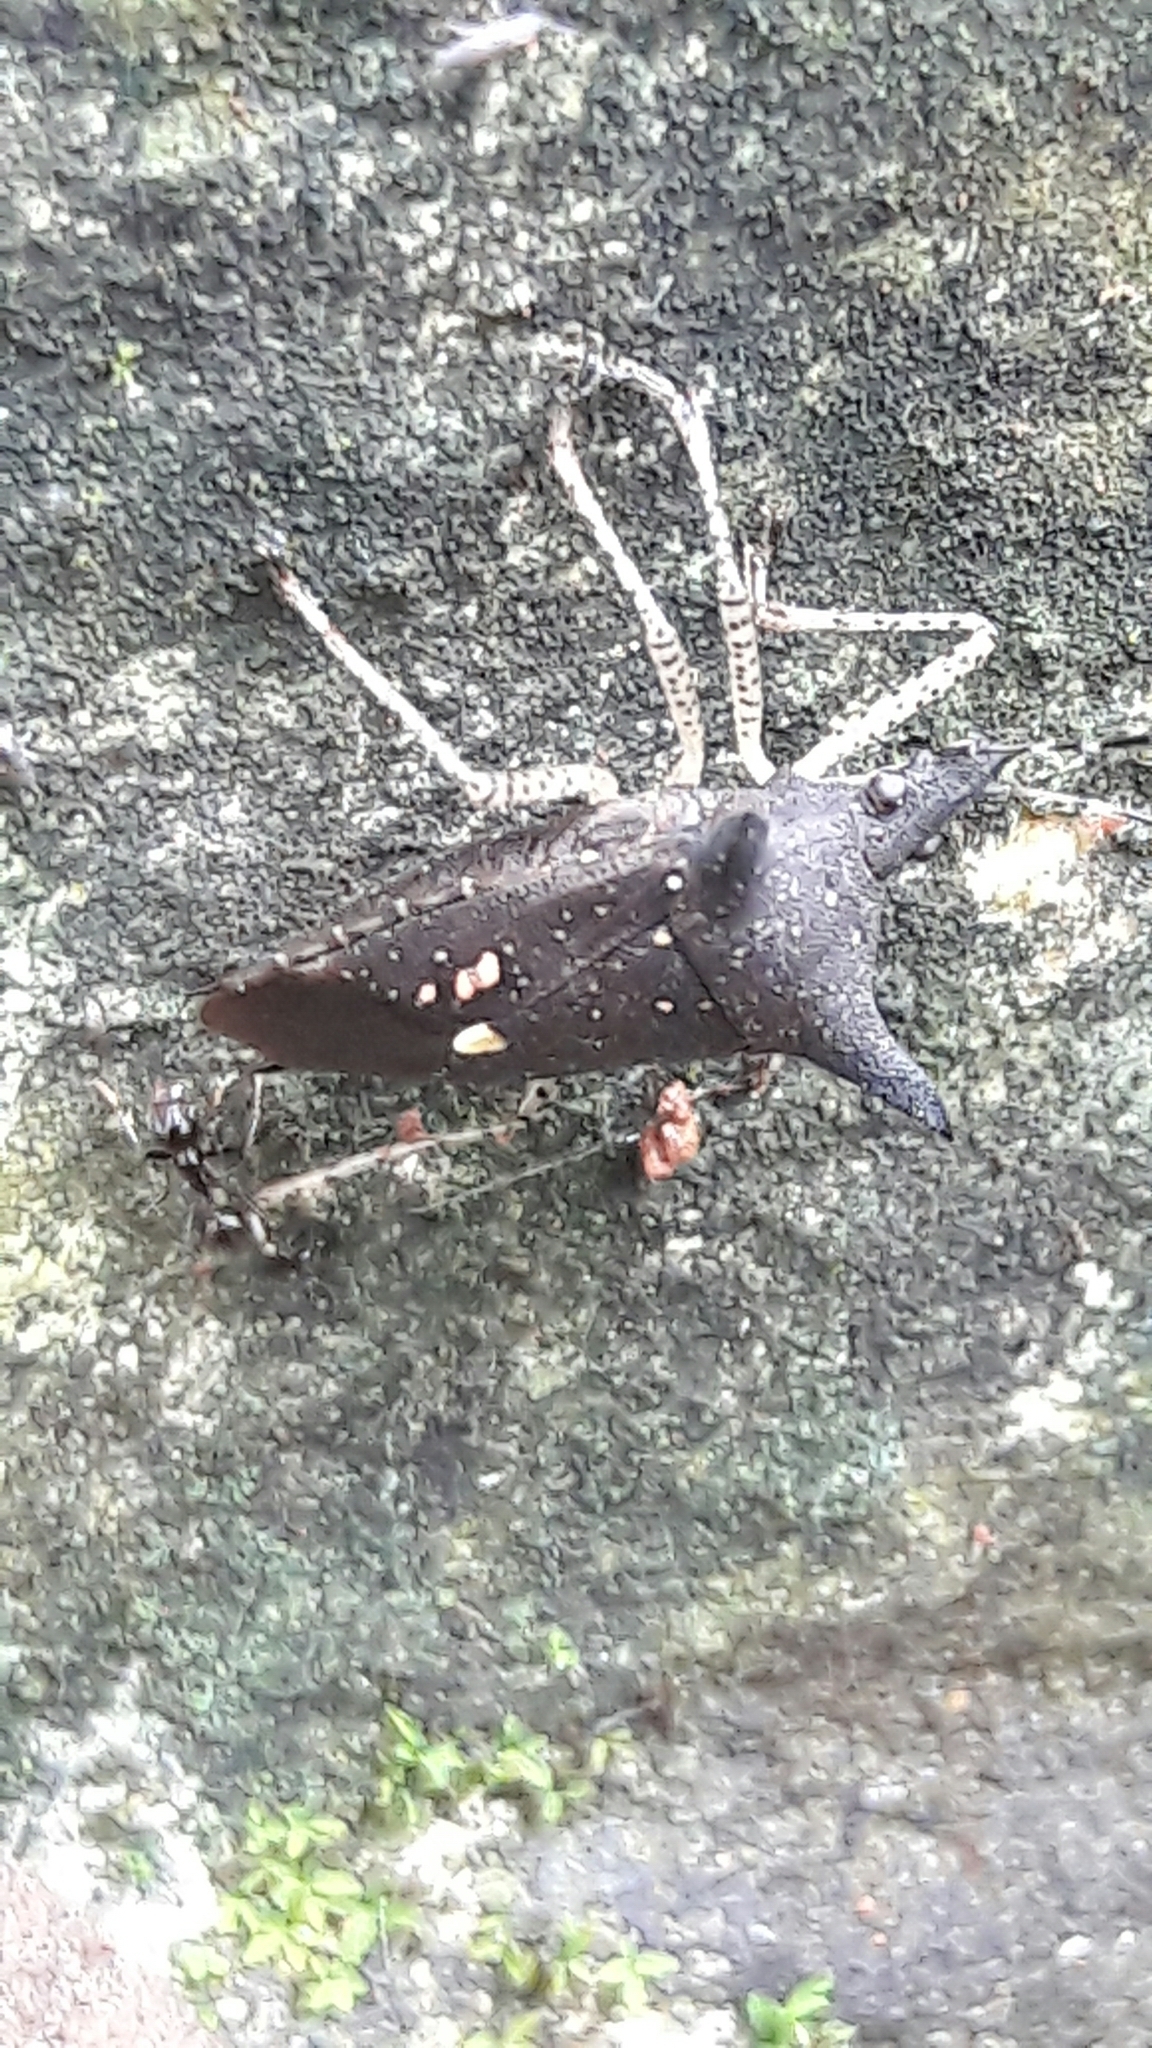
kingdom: Animalia
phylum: Arthropoda
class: Insecta
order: Hemiptera
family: Pentatomidae
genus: Proxys
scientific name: Proxys albopunctulatus
